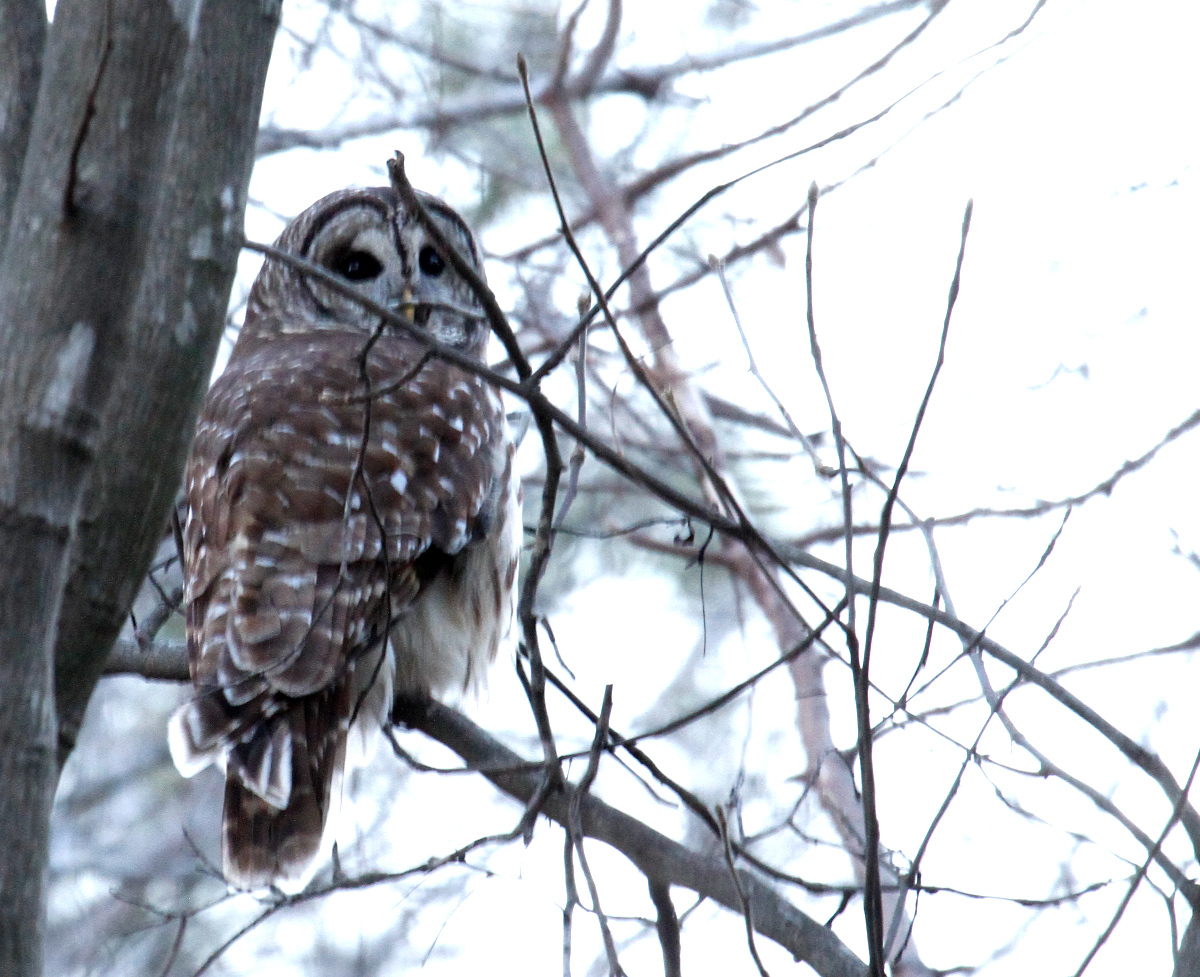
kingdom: Animalia
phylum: Chordata
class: Aves
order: Strigiformes
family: Strigidae
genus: Strix
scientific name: Strix varia
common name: Barred owl
